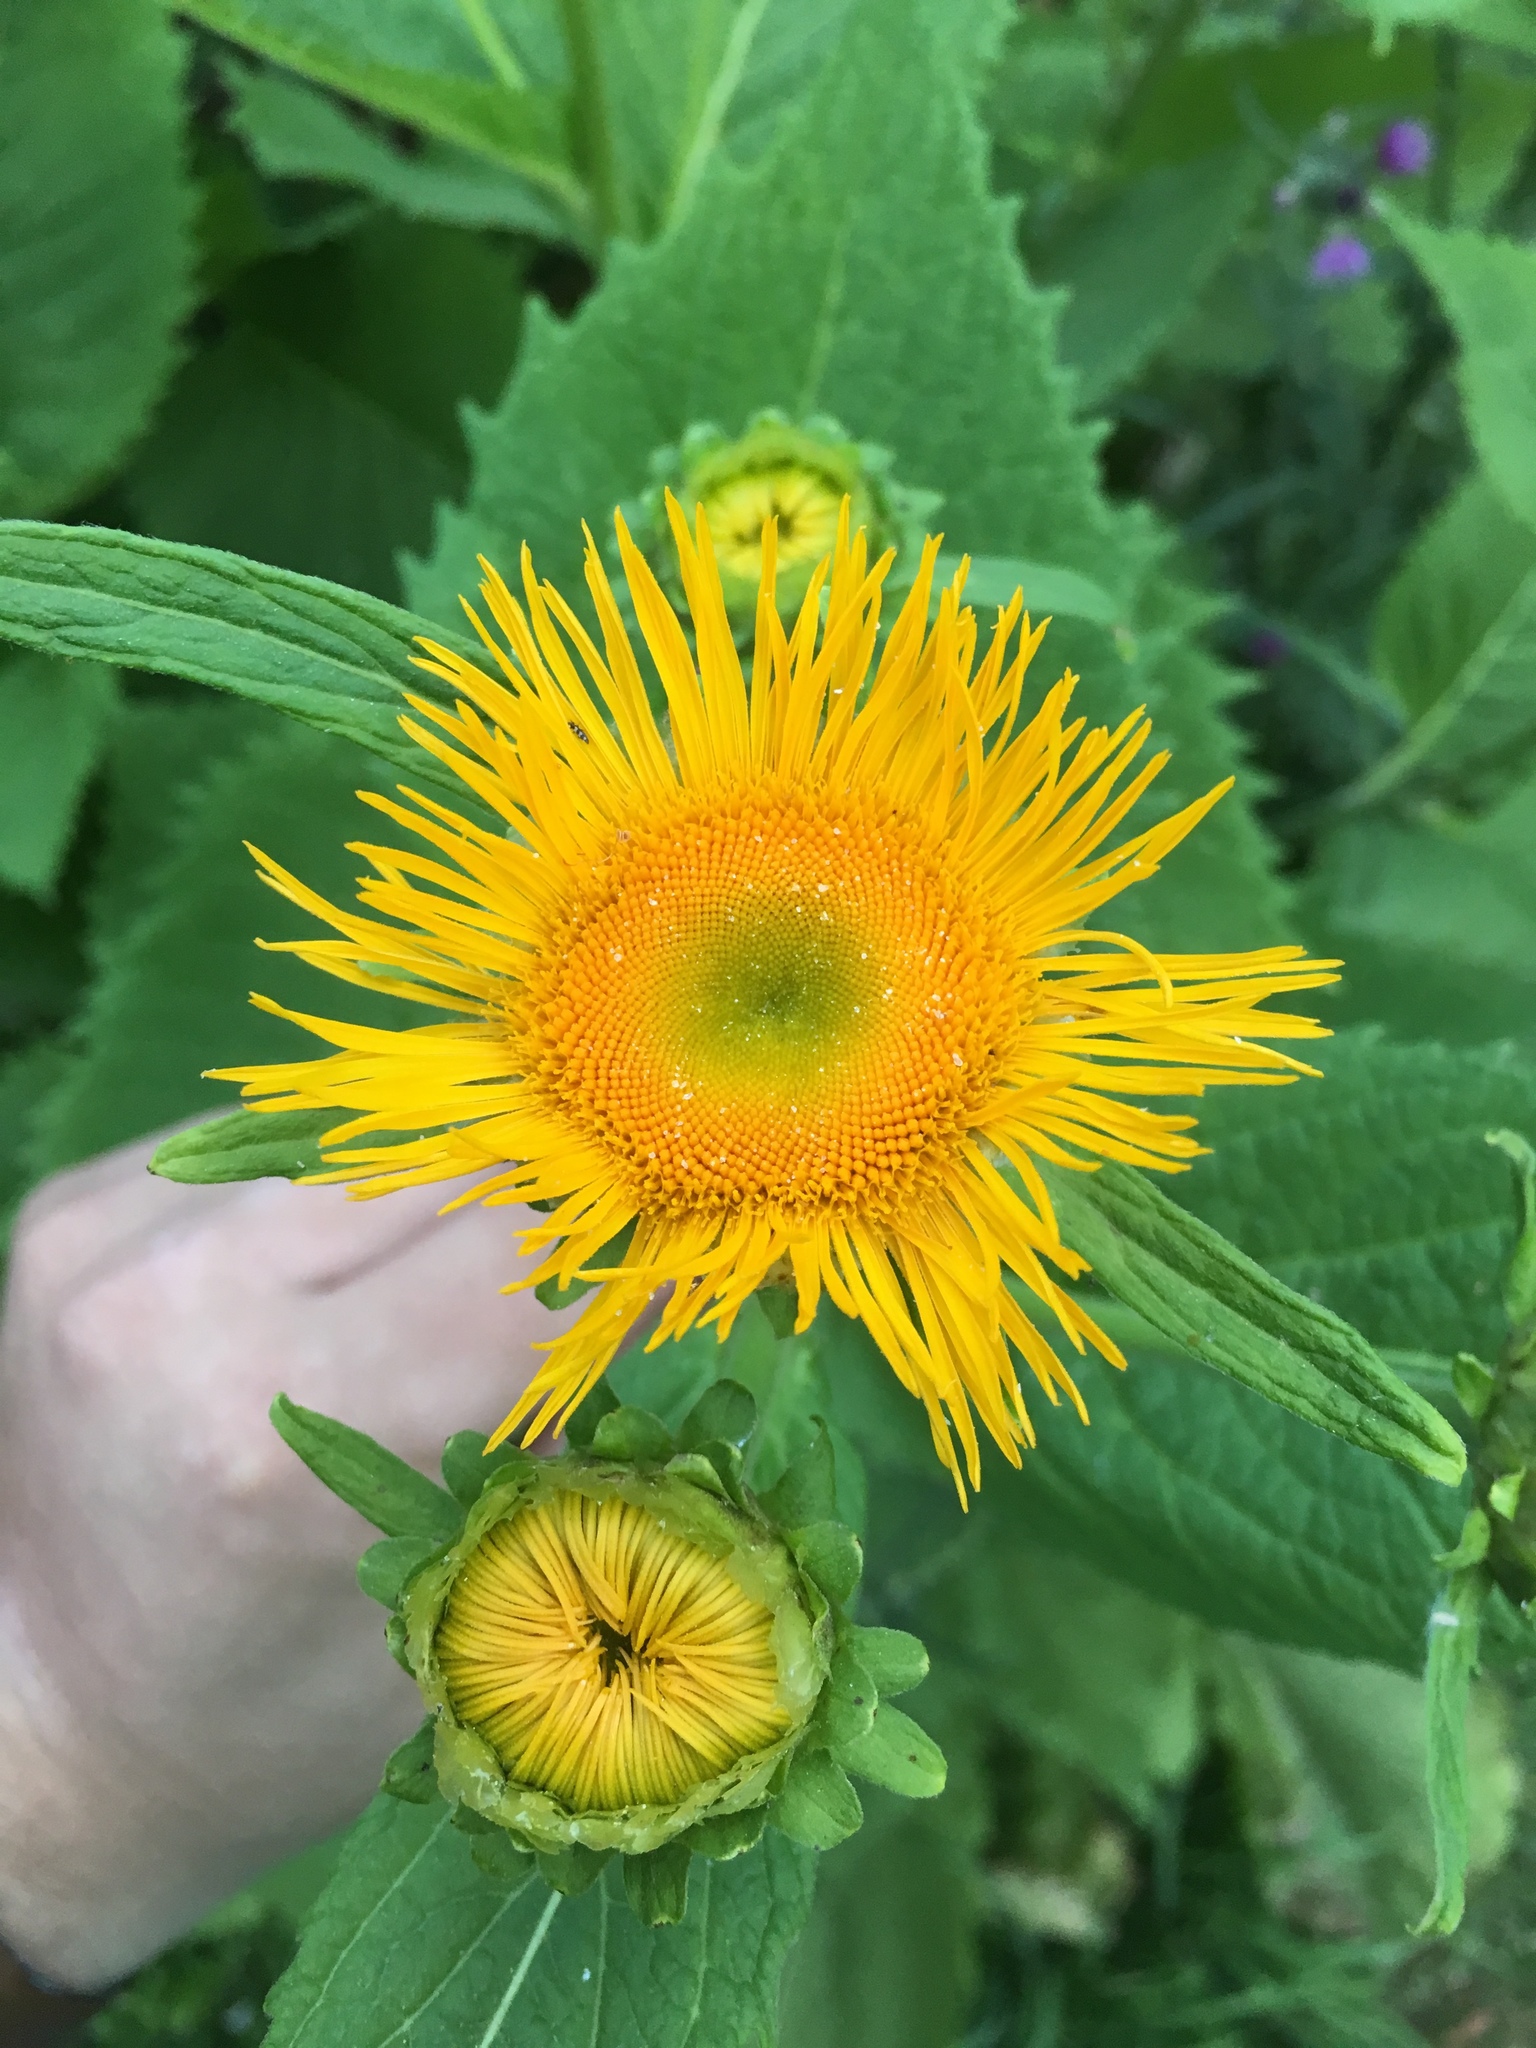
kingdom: Plantae
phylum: Tracheophyta
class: Magnoliopsida
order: Asterales
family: Asteraceae
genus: Telekia
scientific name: Telekia speciosa
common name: Yellow oxeye
